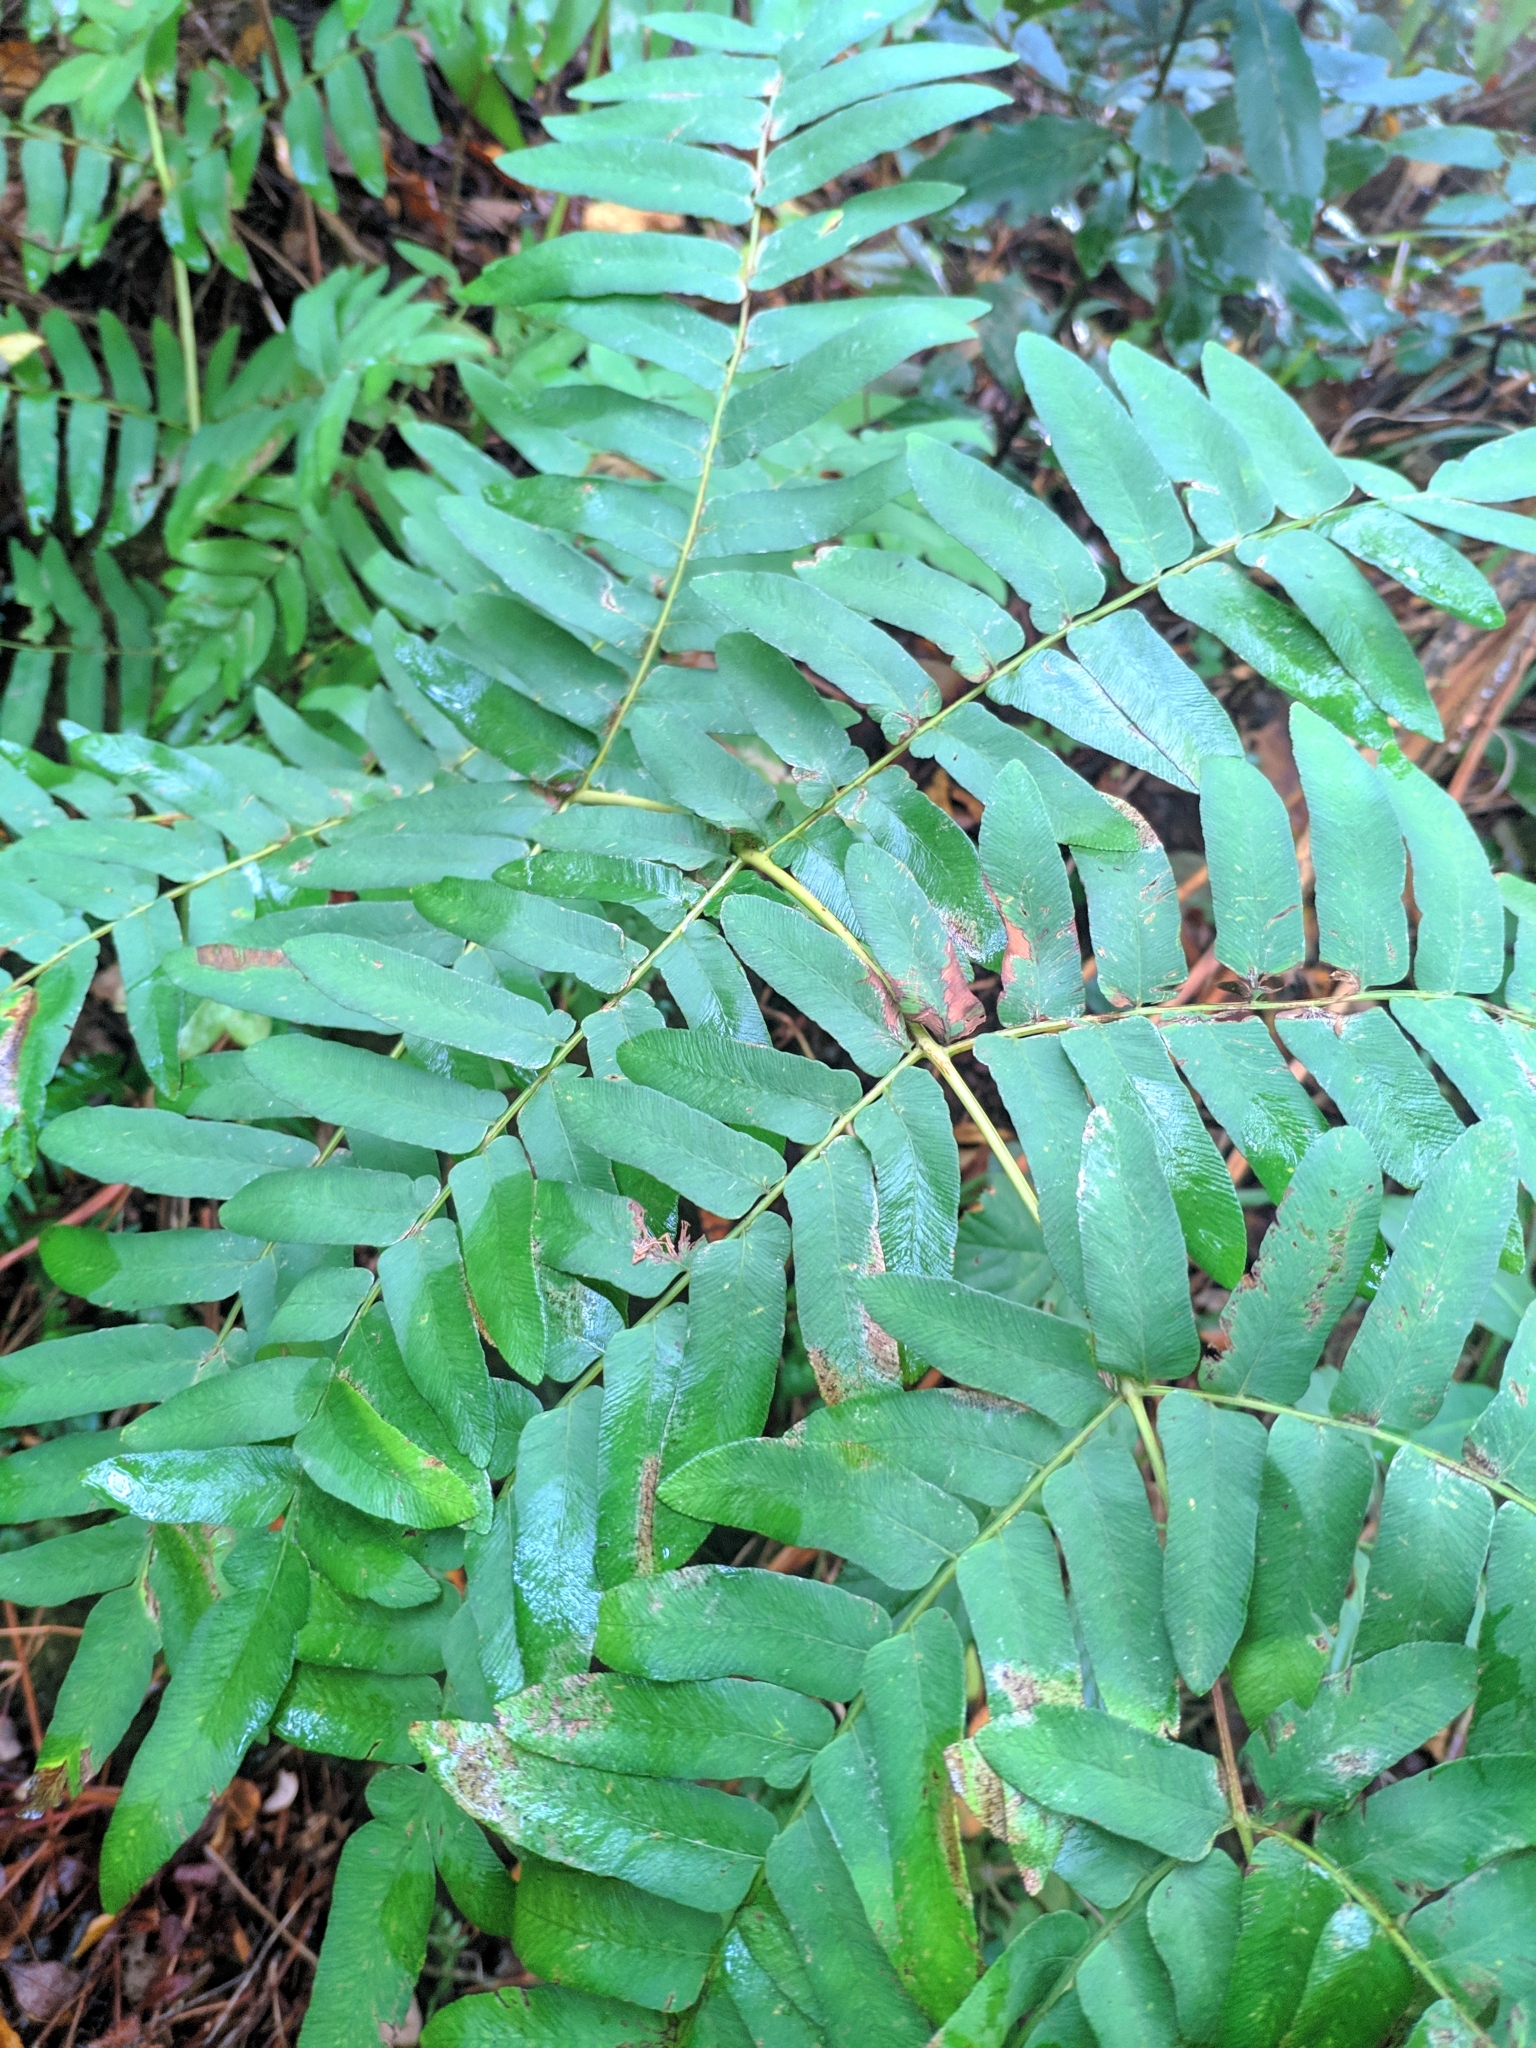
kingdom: Plantae
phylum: Tracheophyta
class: Polypodiopsida
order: Osmundales
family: Osmundaceae
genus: Osmunda
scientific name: Osmunda regalis
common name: Royal fern
